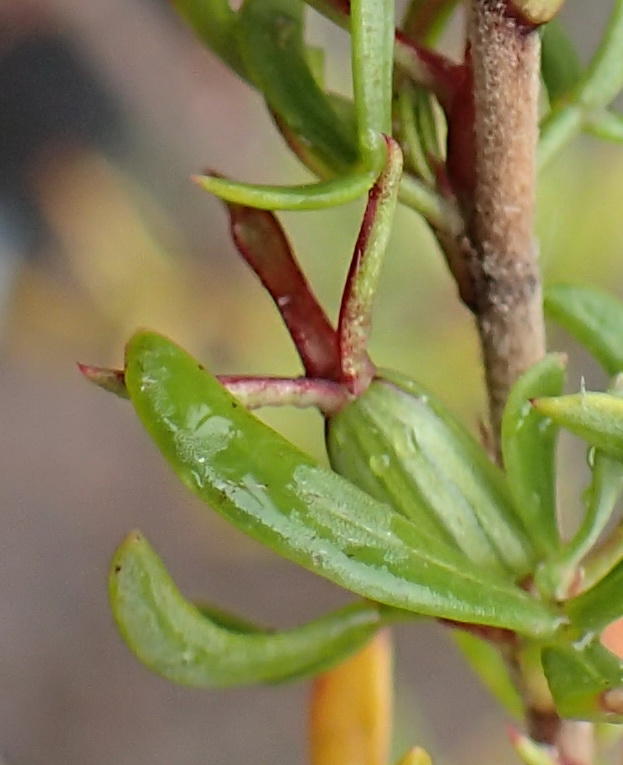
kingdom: Plantae
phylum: Tracheophyta
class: Magnoliopsida
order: Rosales
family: Rosaceae
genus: Cliffortia
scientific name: Cliffortia falcata
